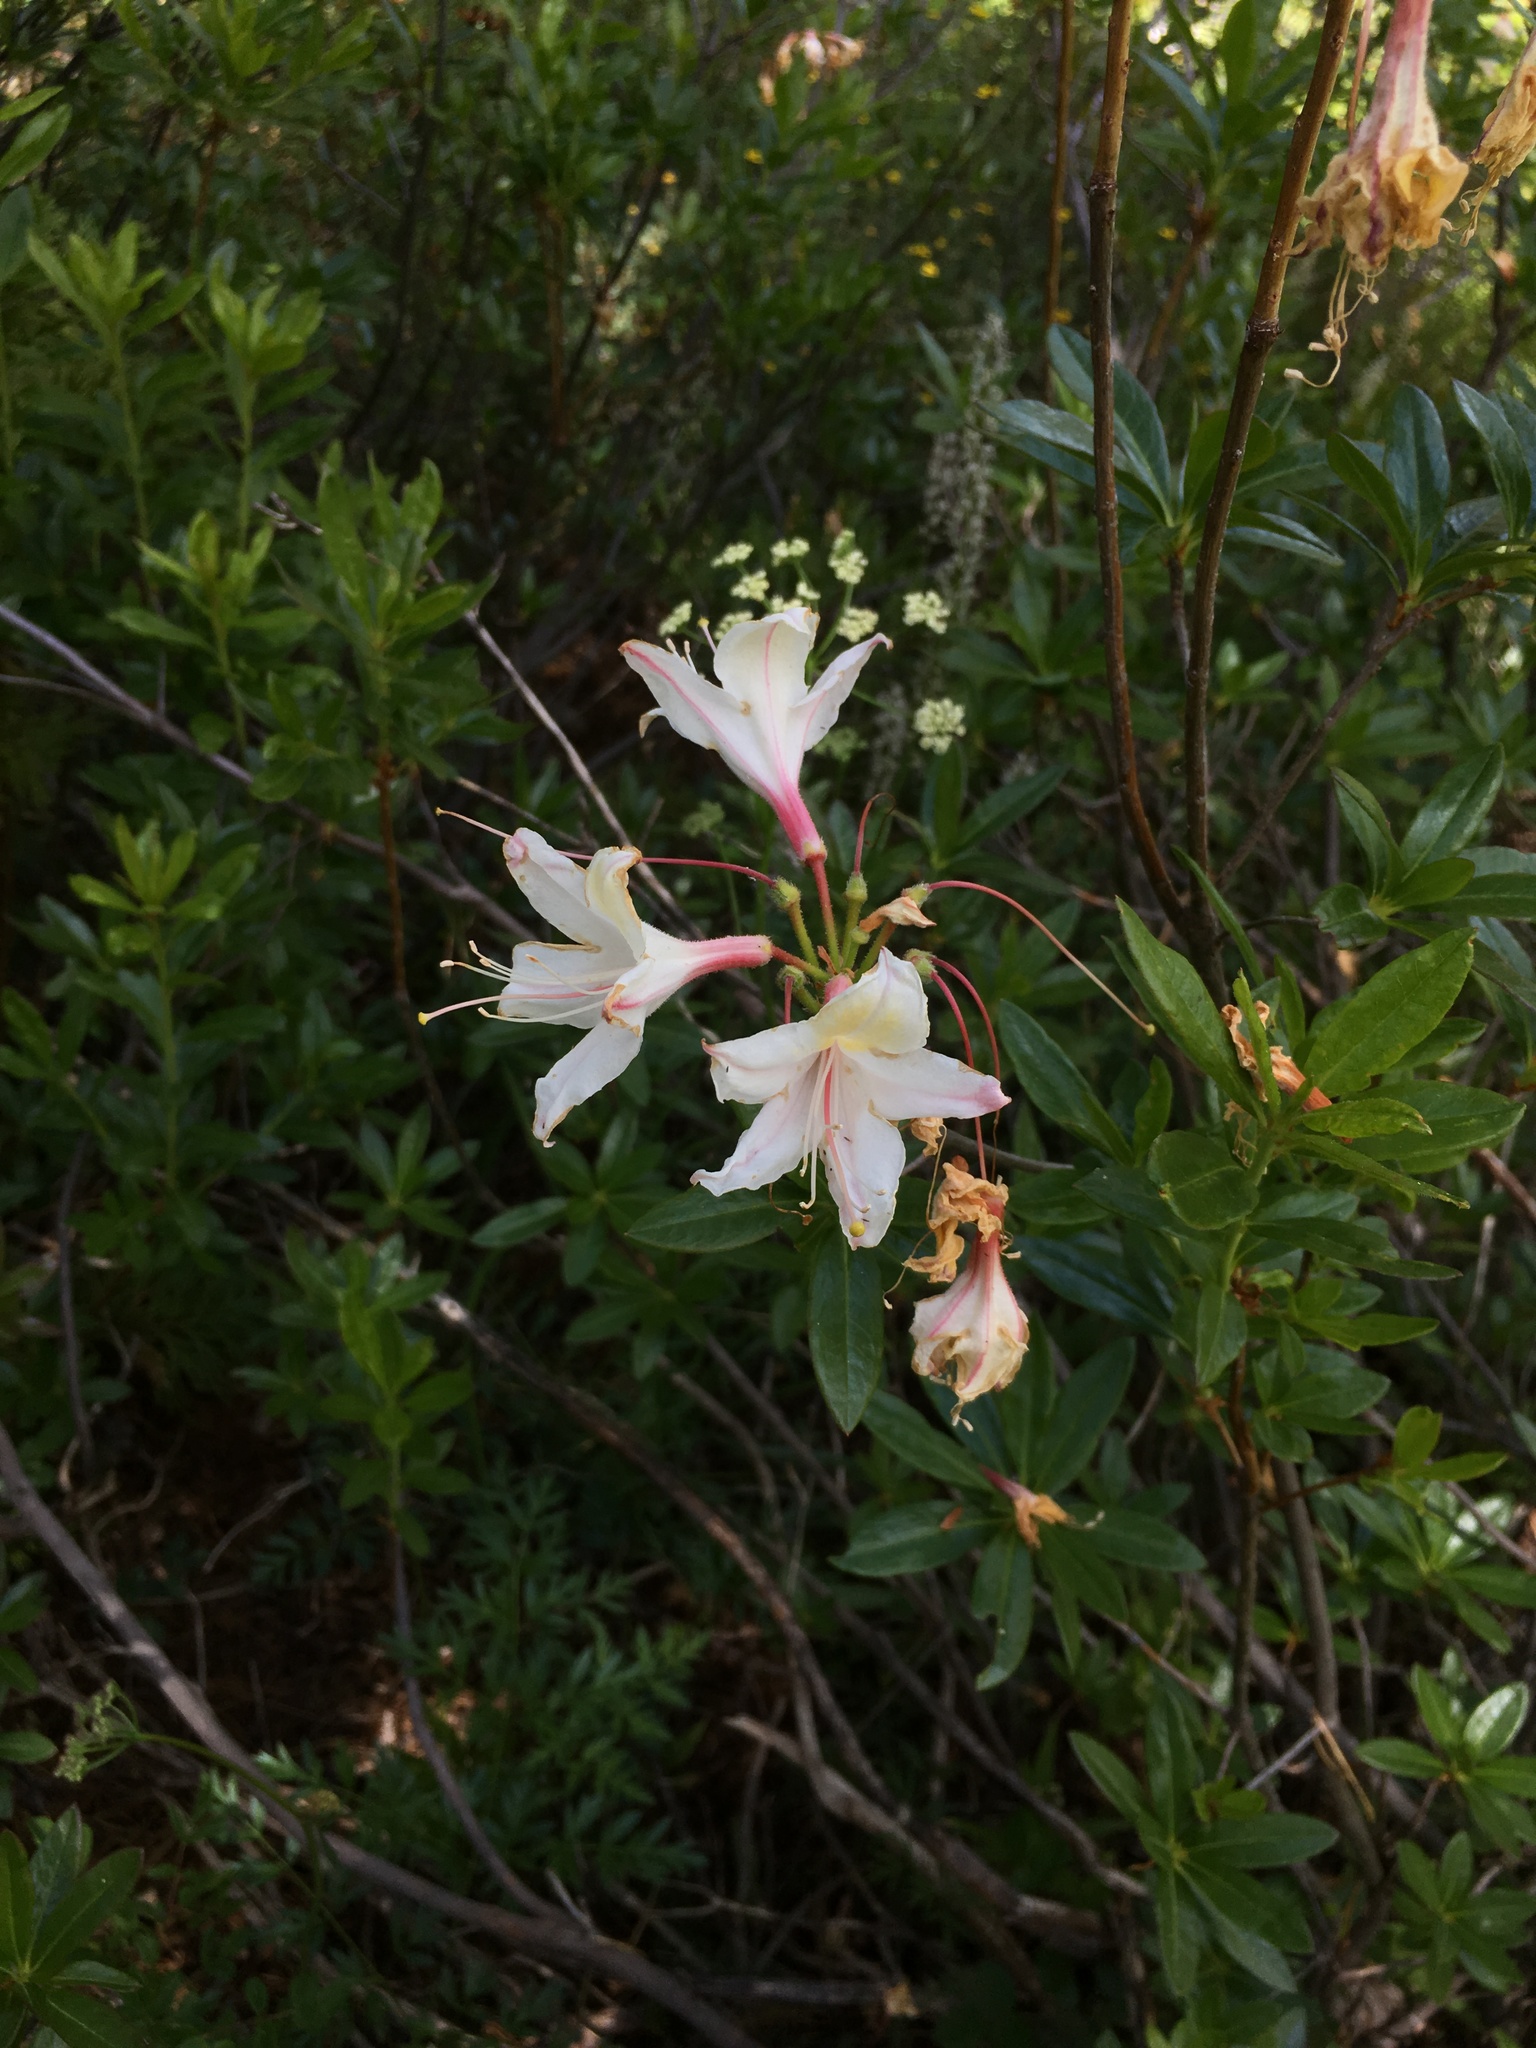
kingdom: Plantae
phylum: Tracheophyta
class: Magnoliopsida
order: Ericales
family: Ericaceae
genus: Rhododendron
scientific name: Rhododendron occidentale
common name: Western azalea
